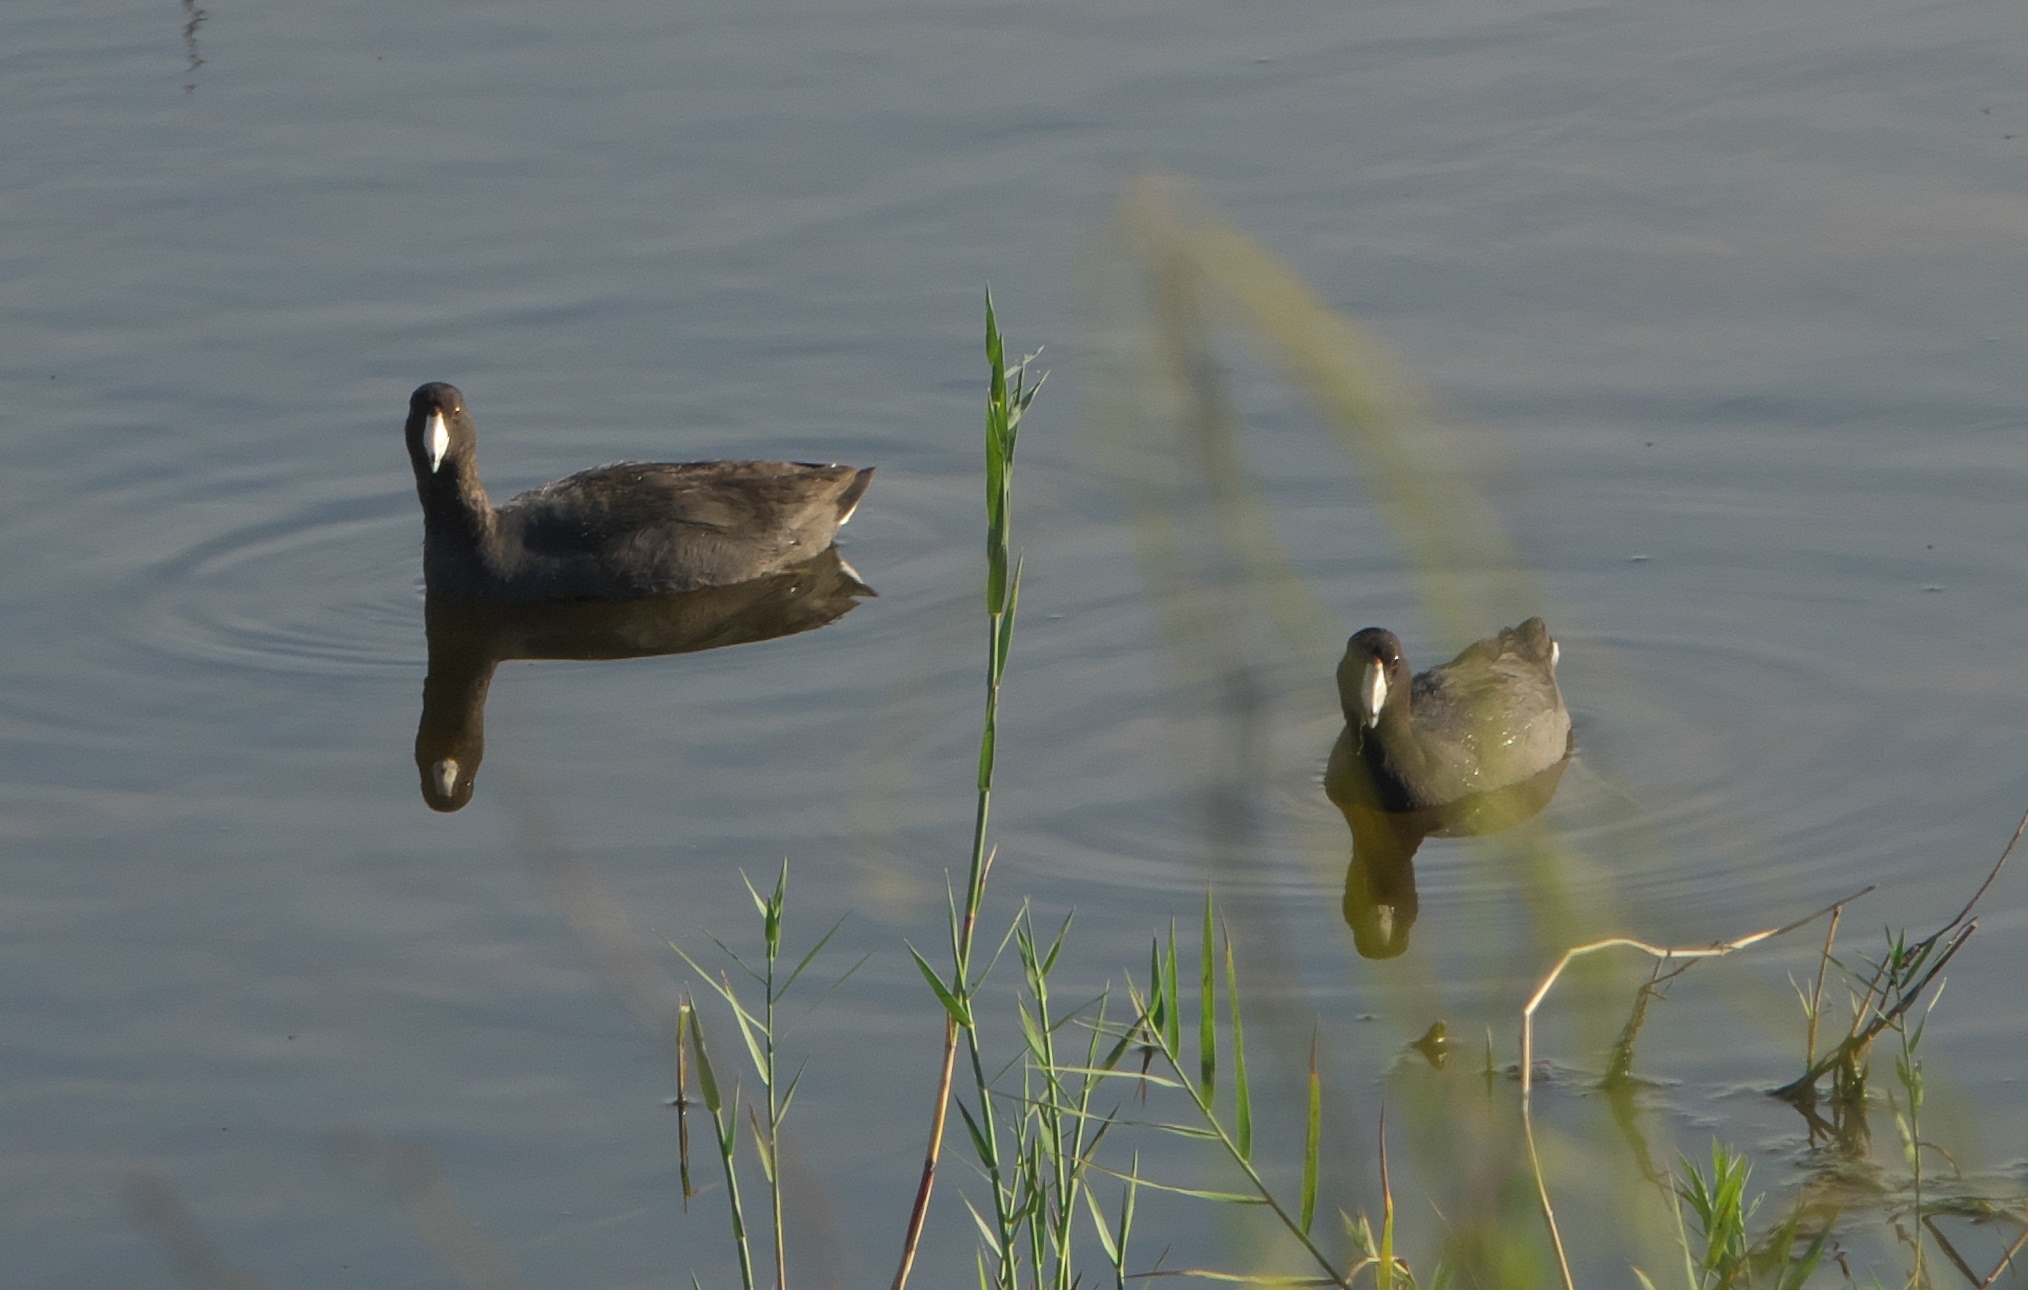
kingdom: Animalia
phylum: Chordata
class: Aves
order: Gruiformes
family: Rallidae
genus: Fulica
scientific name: Fulica americana
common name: American coot
